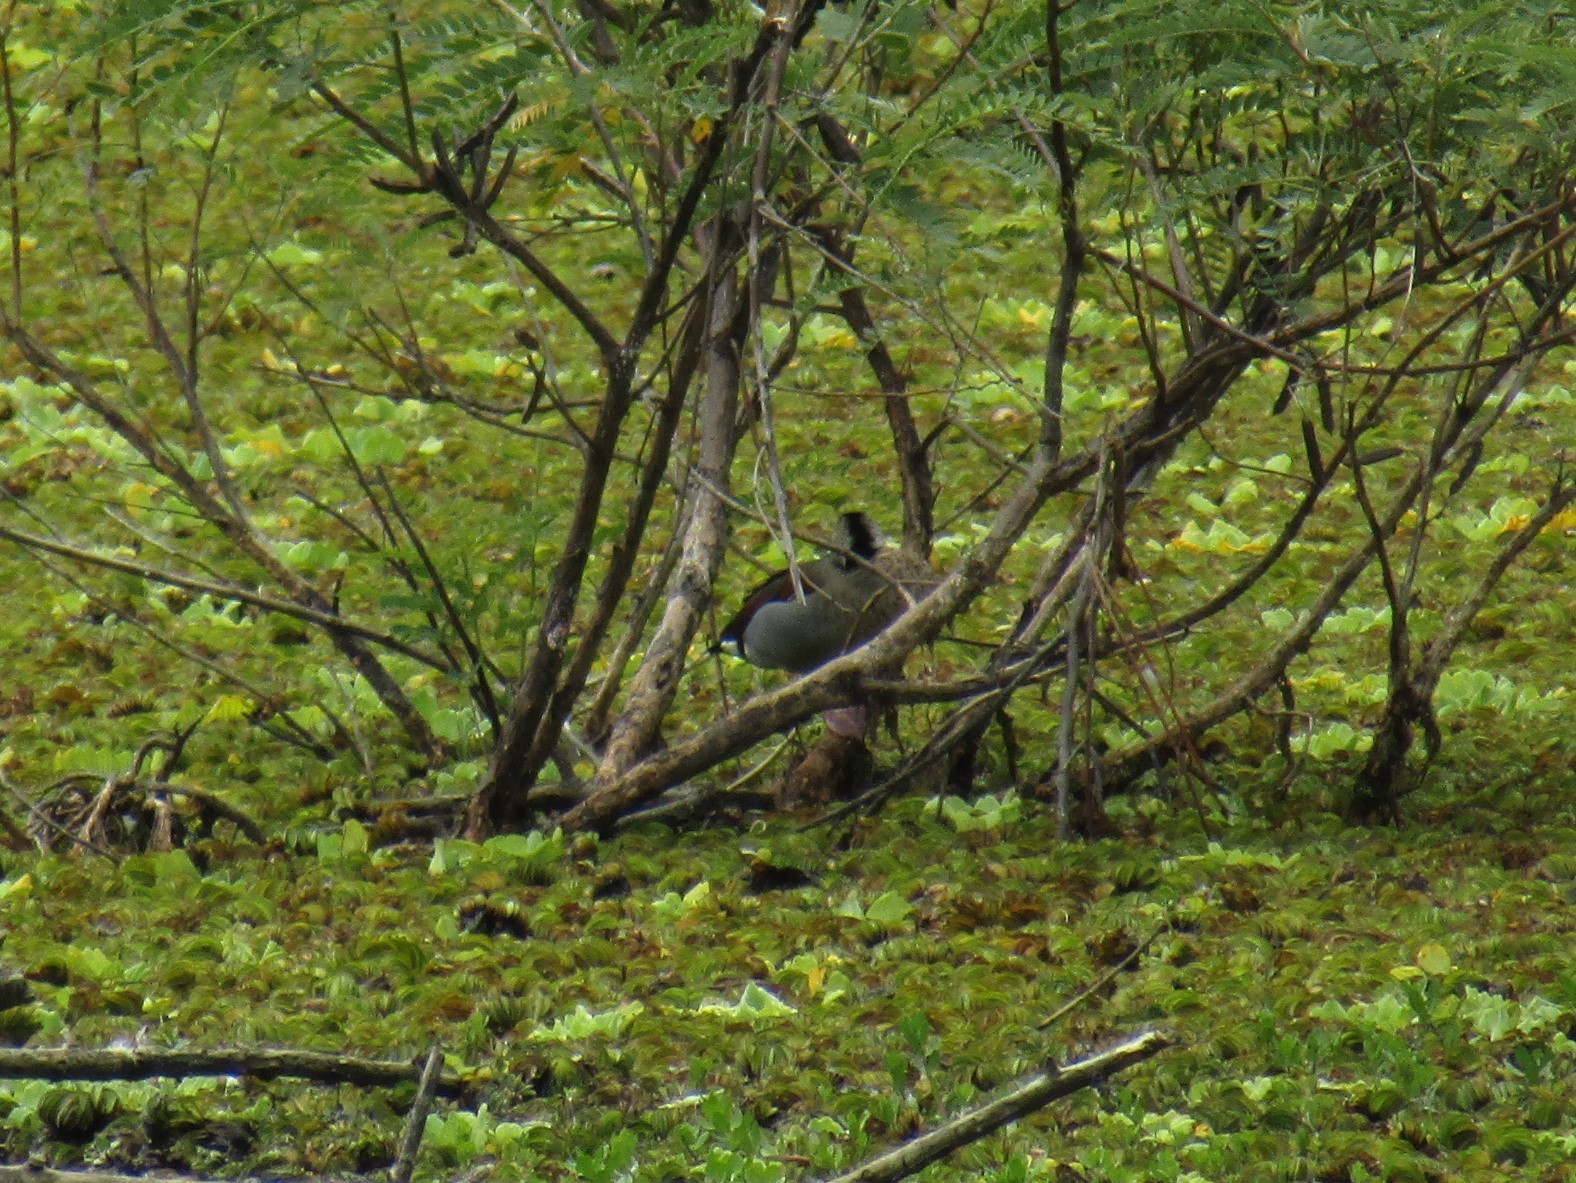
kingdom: Animalia
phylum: Chordata
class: Aves
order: Anseriformes
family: Anatidae
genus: Callonetta
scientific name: Callonetta leucophrys
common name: Ringed teal
